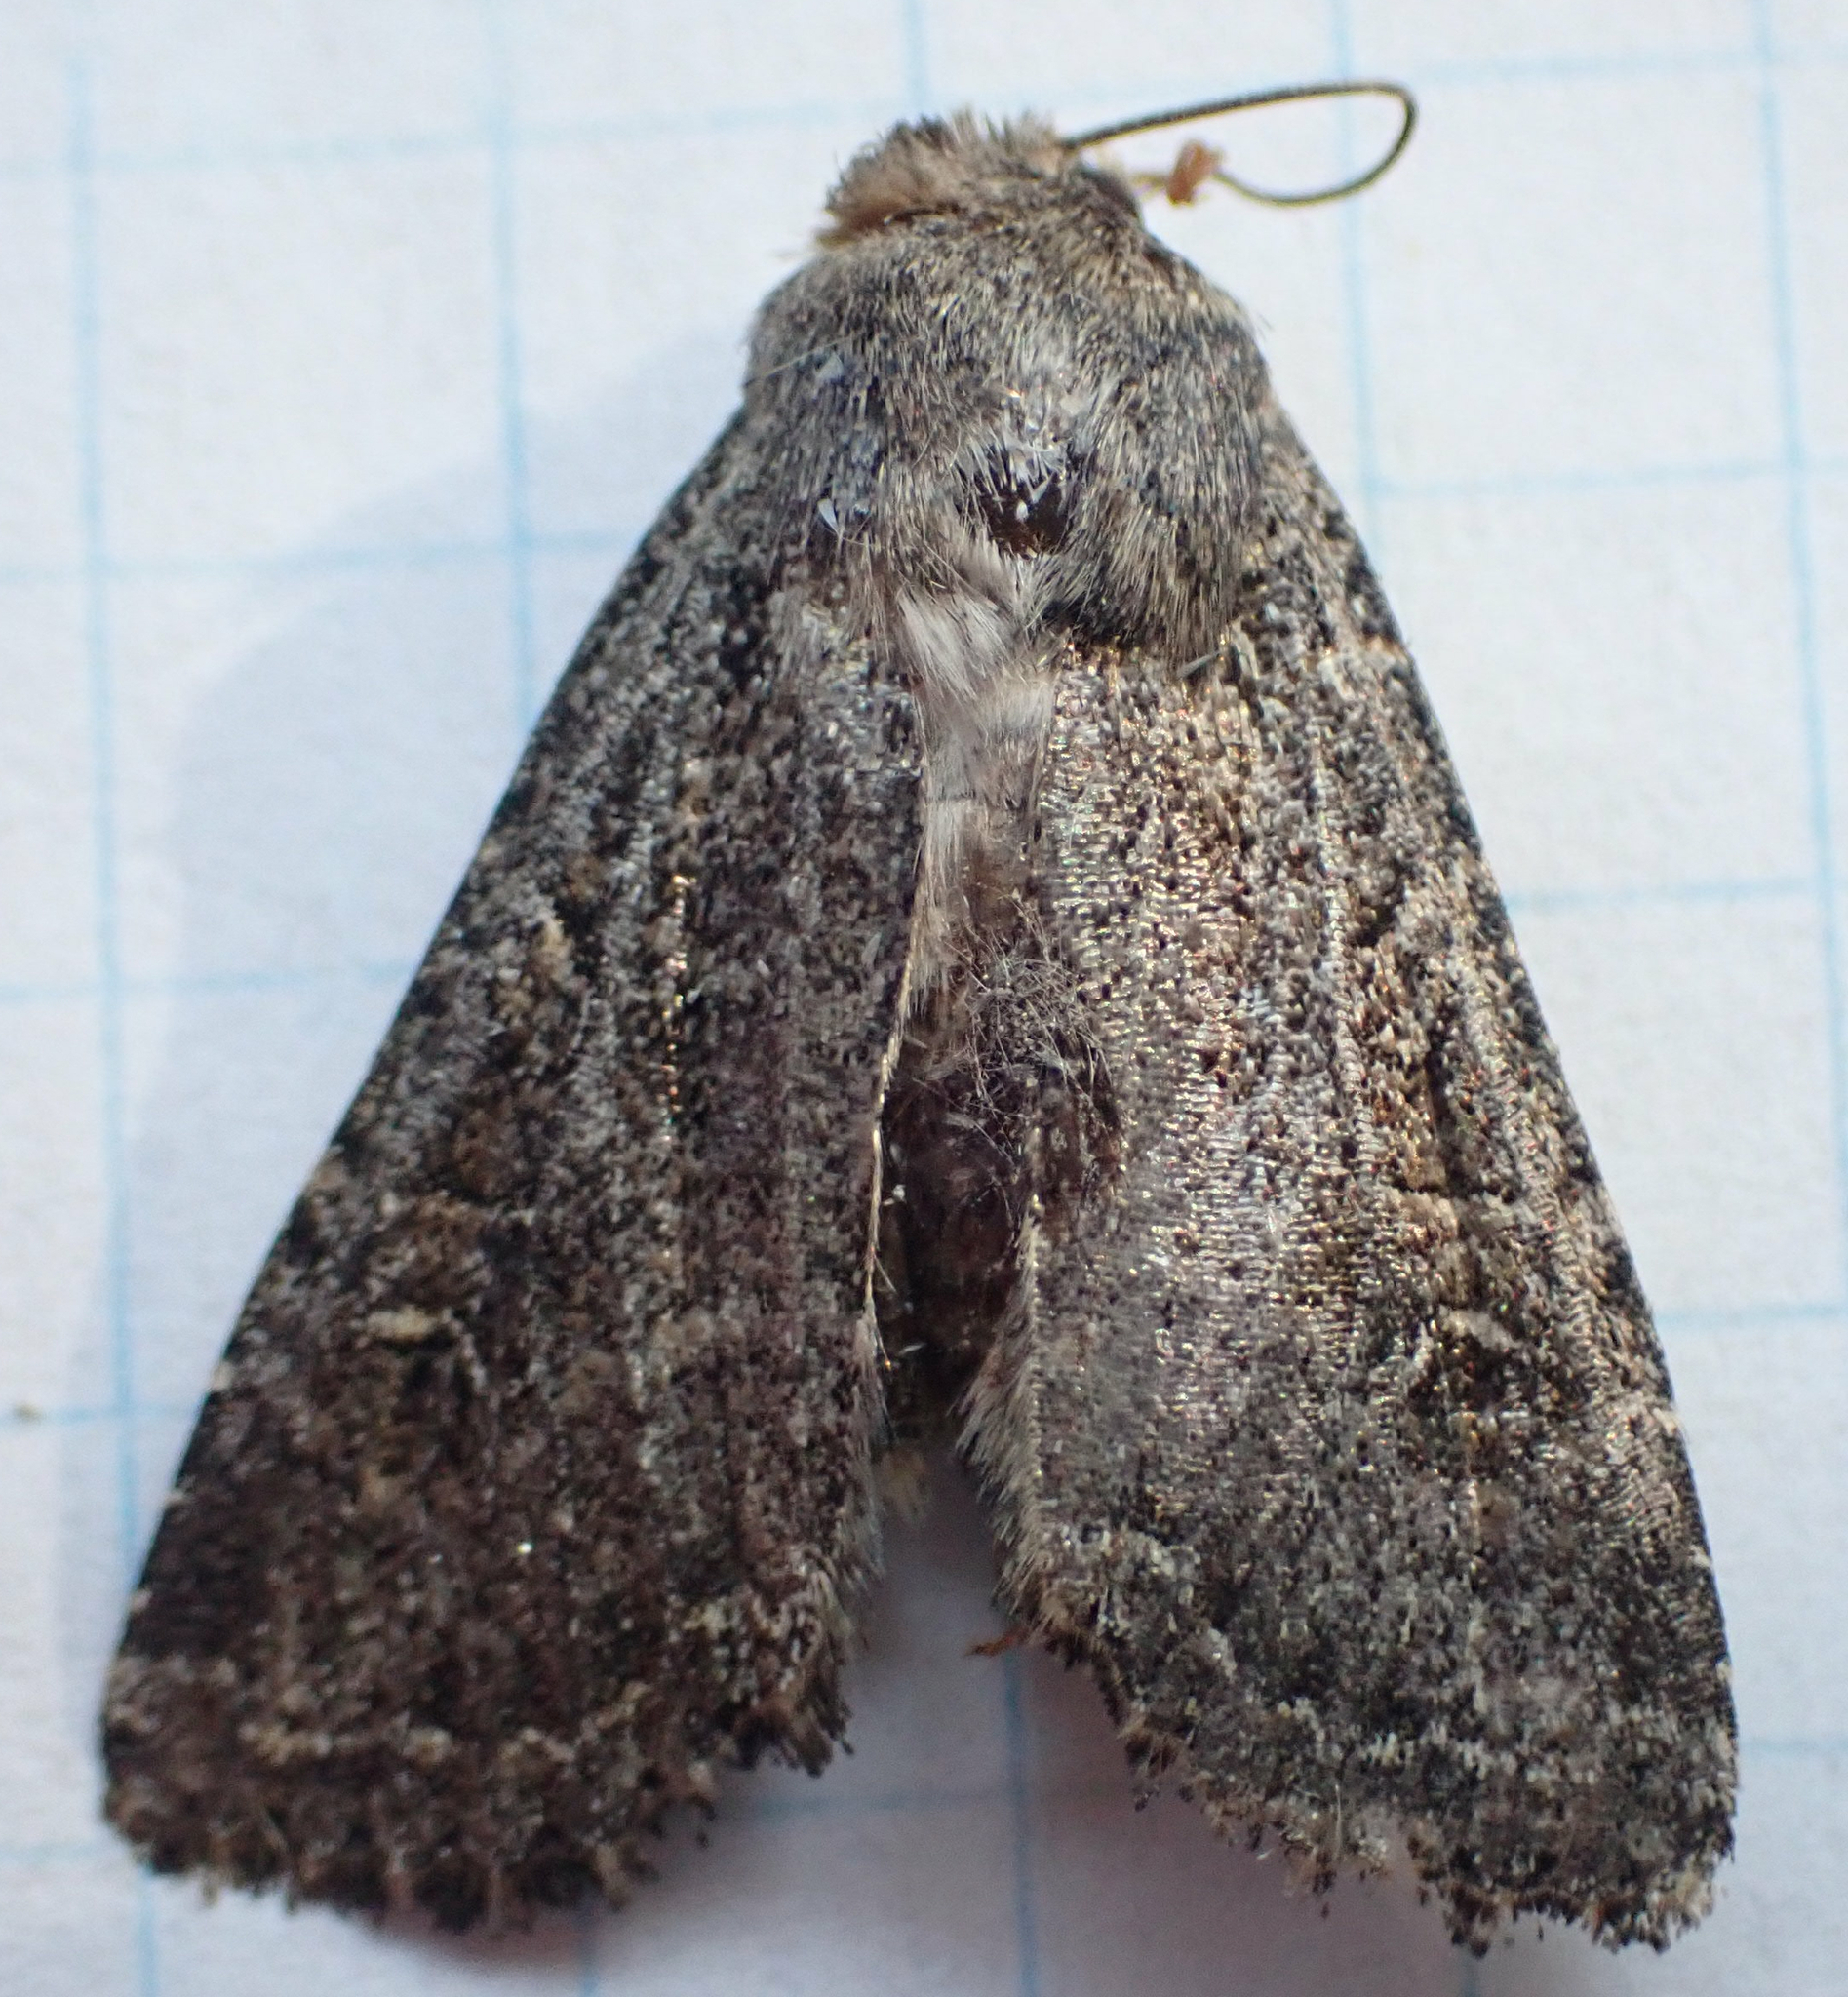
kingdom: Animalia
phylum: Arthropoda
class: Insecta
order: Lepidoptera
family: Noctuidae
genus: Apamea
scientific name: Apamea devastator
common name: Glassy cutworm
